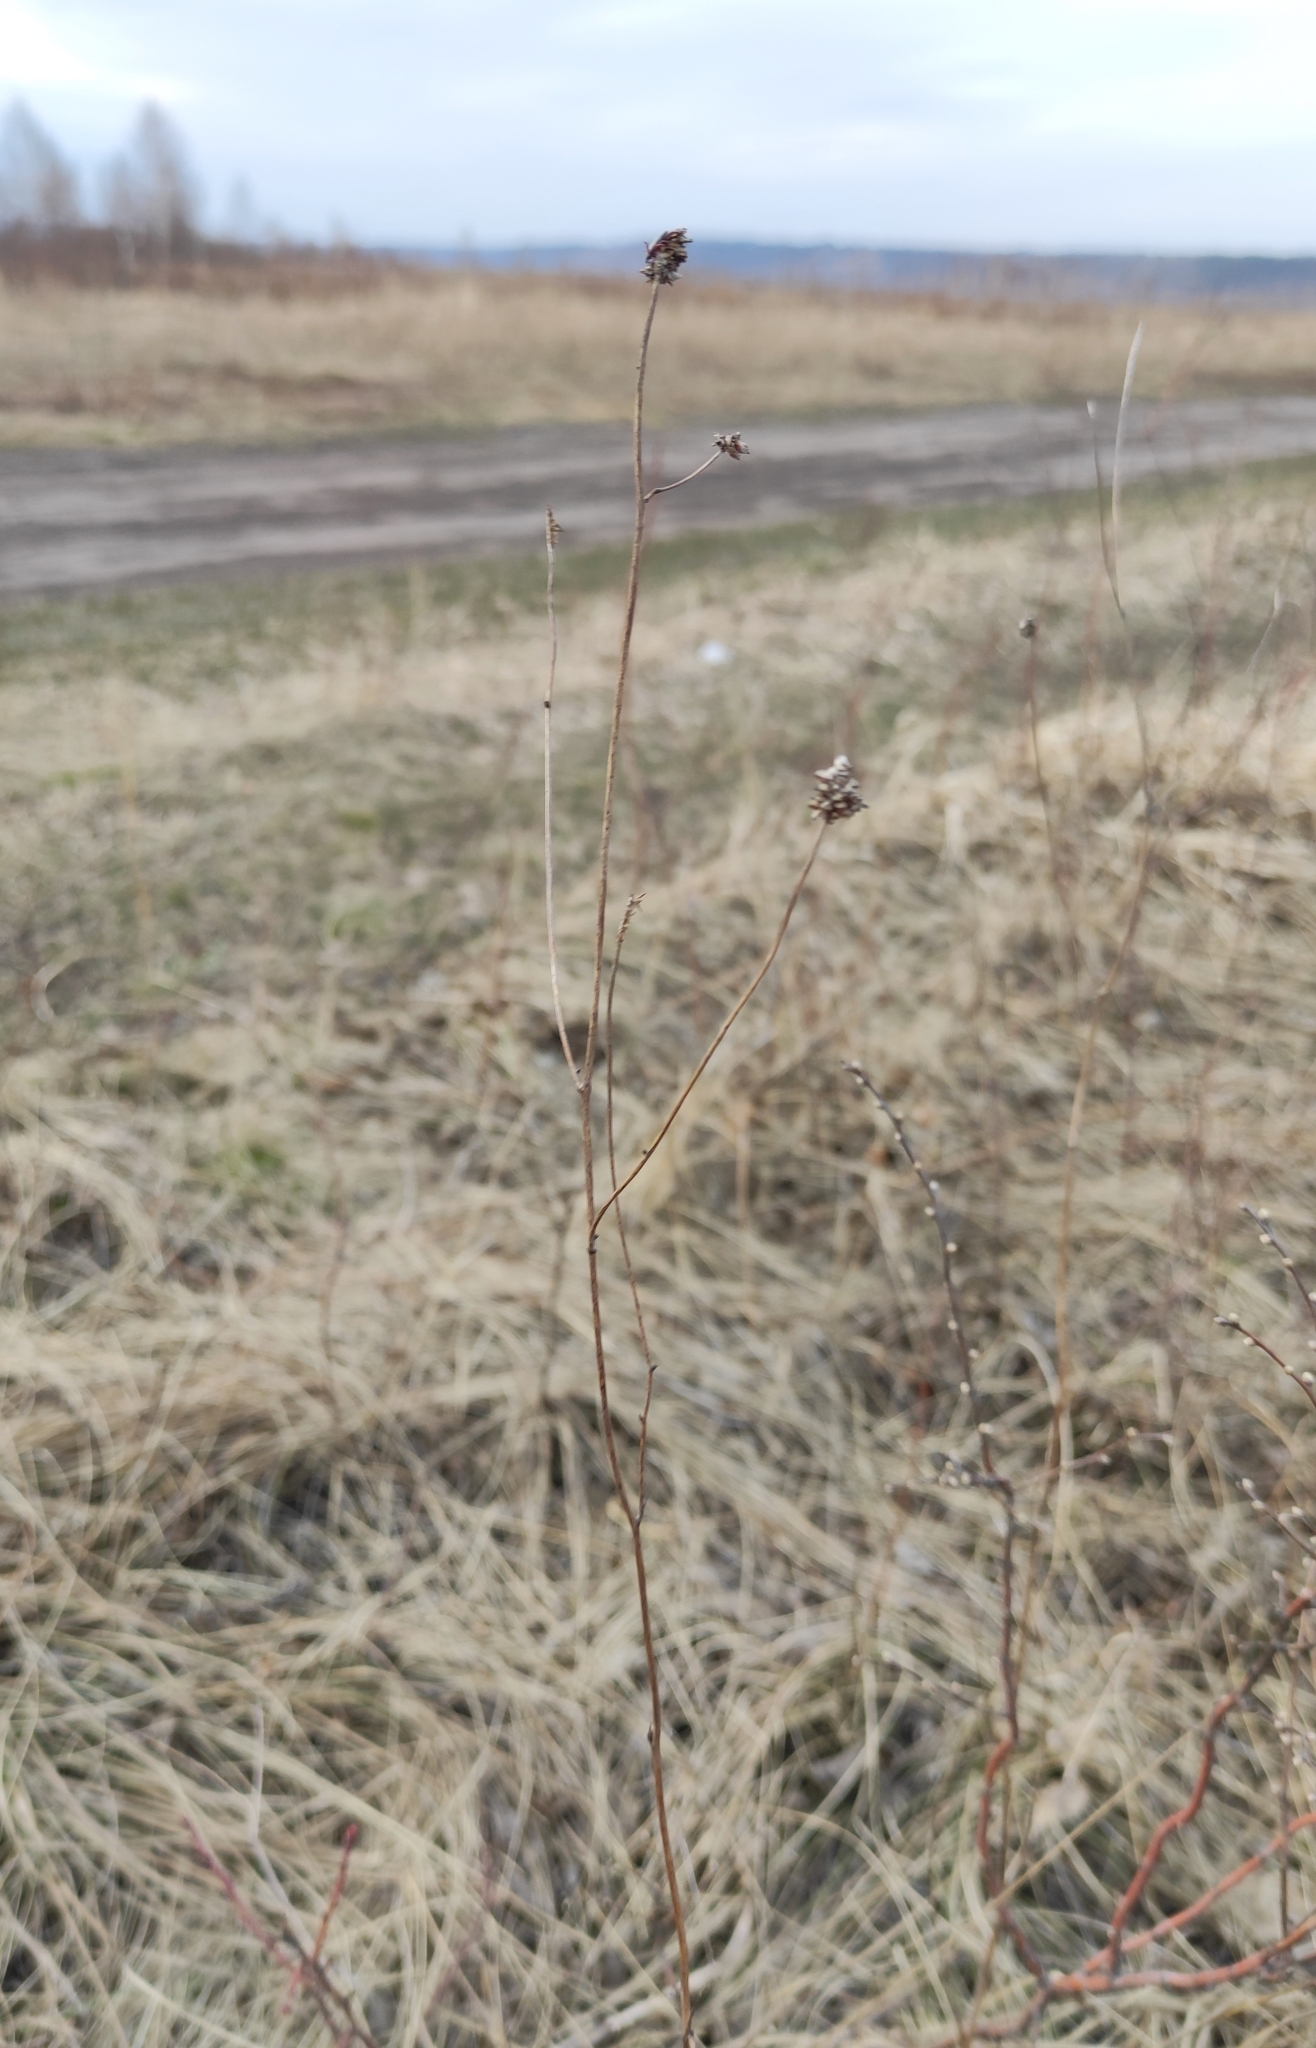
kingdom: Plantae
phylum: Tracheophyta
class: Magnoliopsida
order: Rosales
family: Rosaceae
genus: Sanguisorba
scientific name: Sanguisorba officinalis
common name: Great burnet
